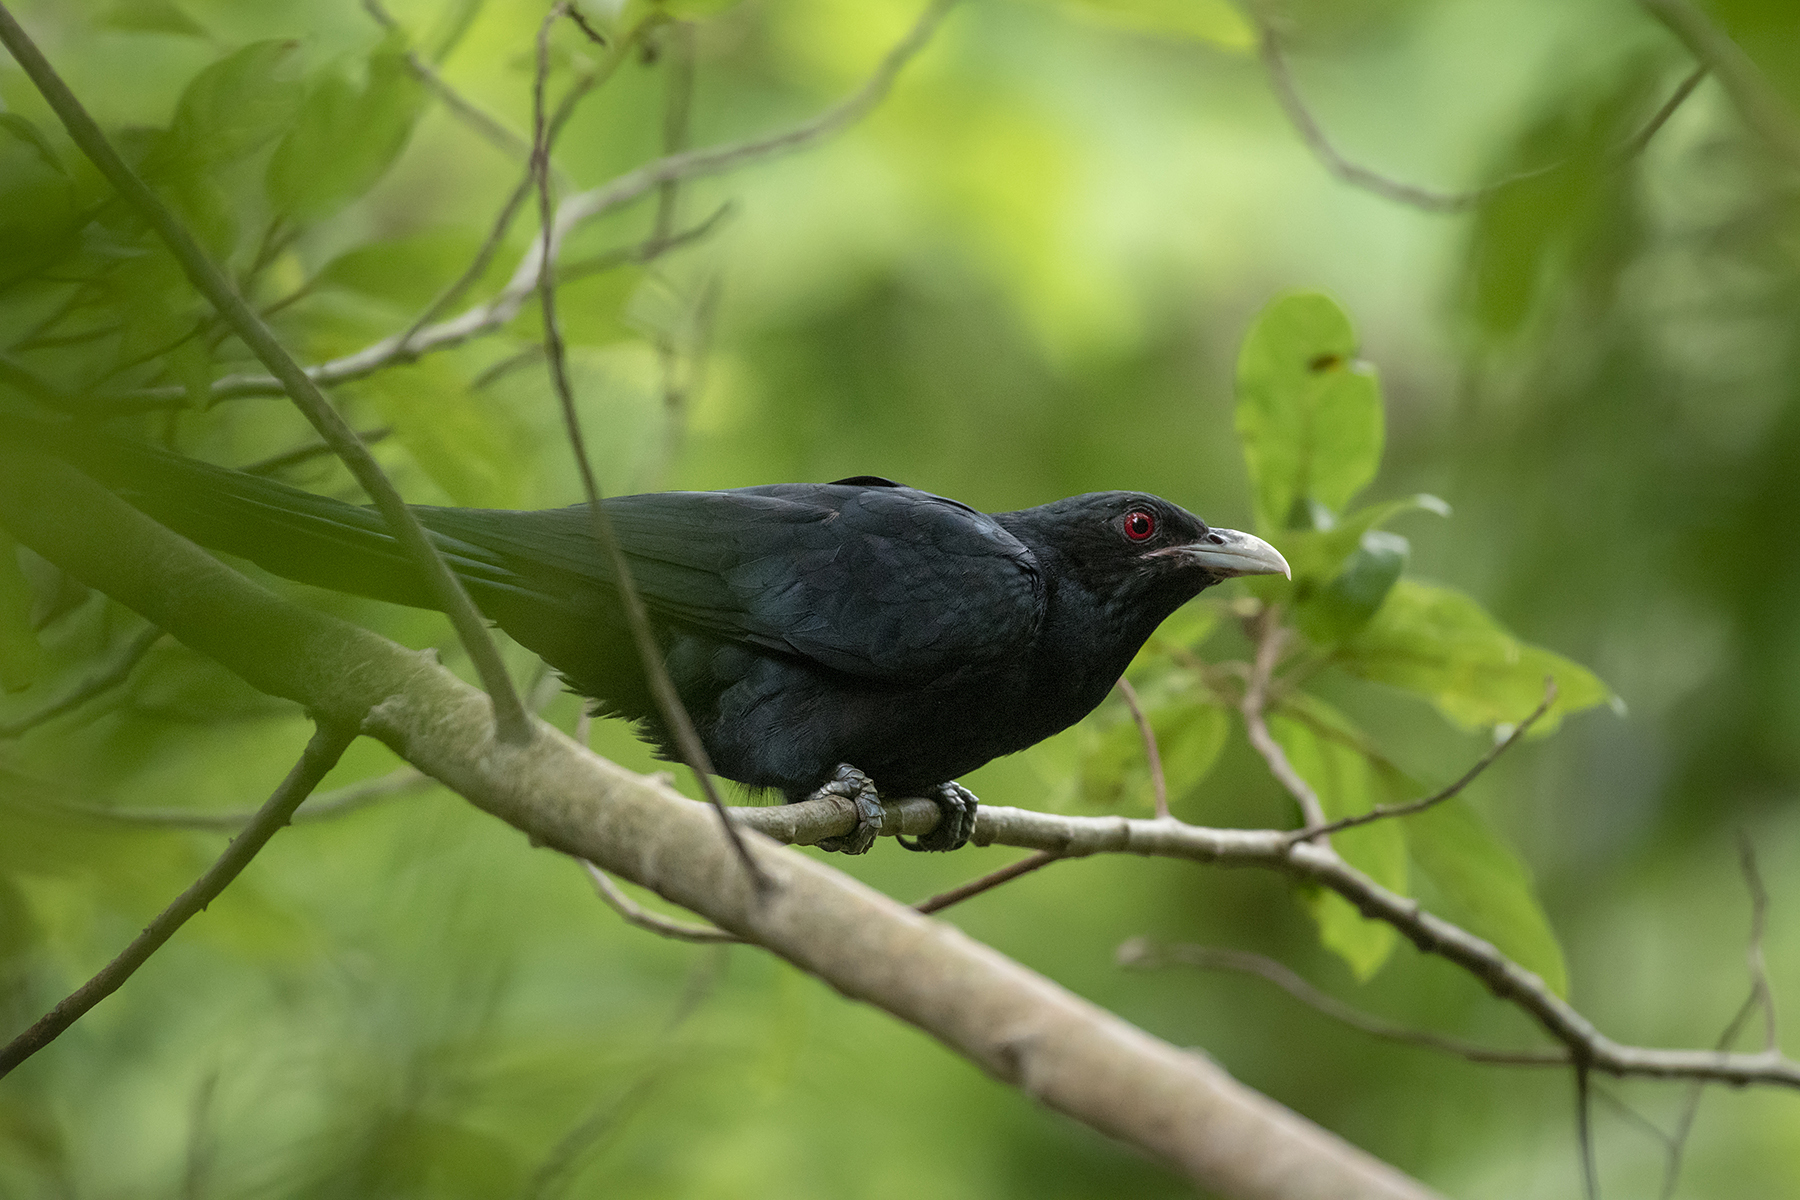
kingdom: Animalia
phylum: Chordata
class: Aves
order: Cuculiformes
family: Cuculidae
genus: Eudynamys
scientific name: Eudynamys scolopaceus
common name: Asian koel
